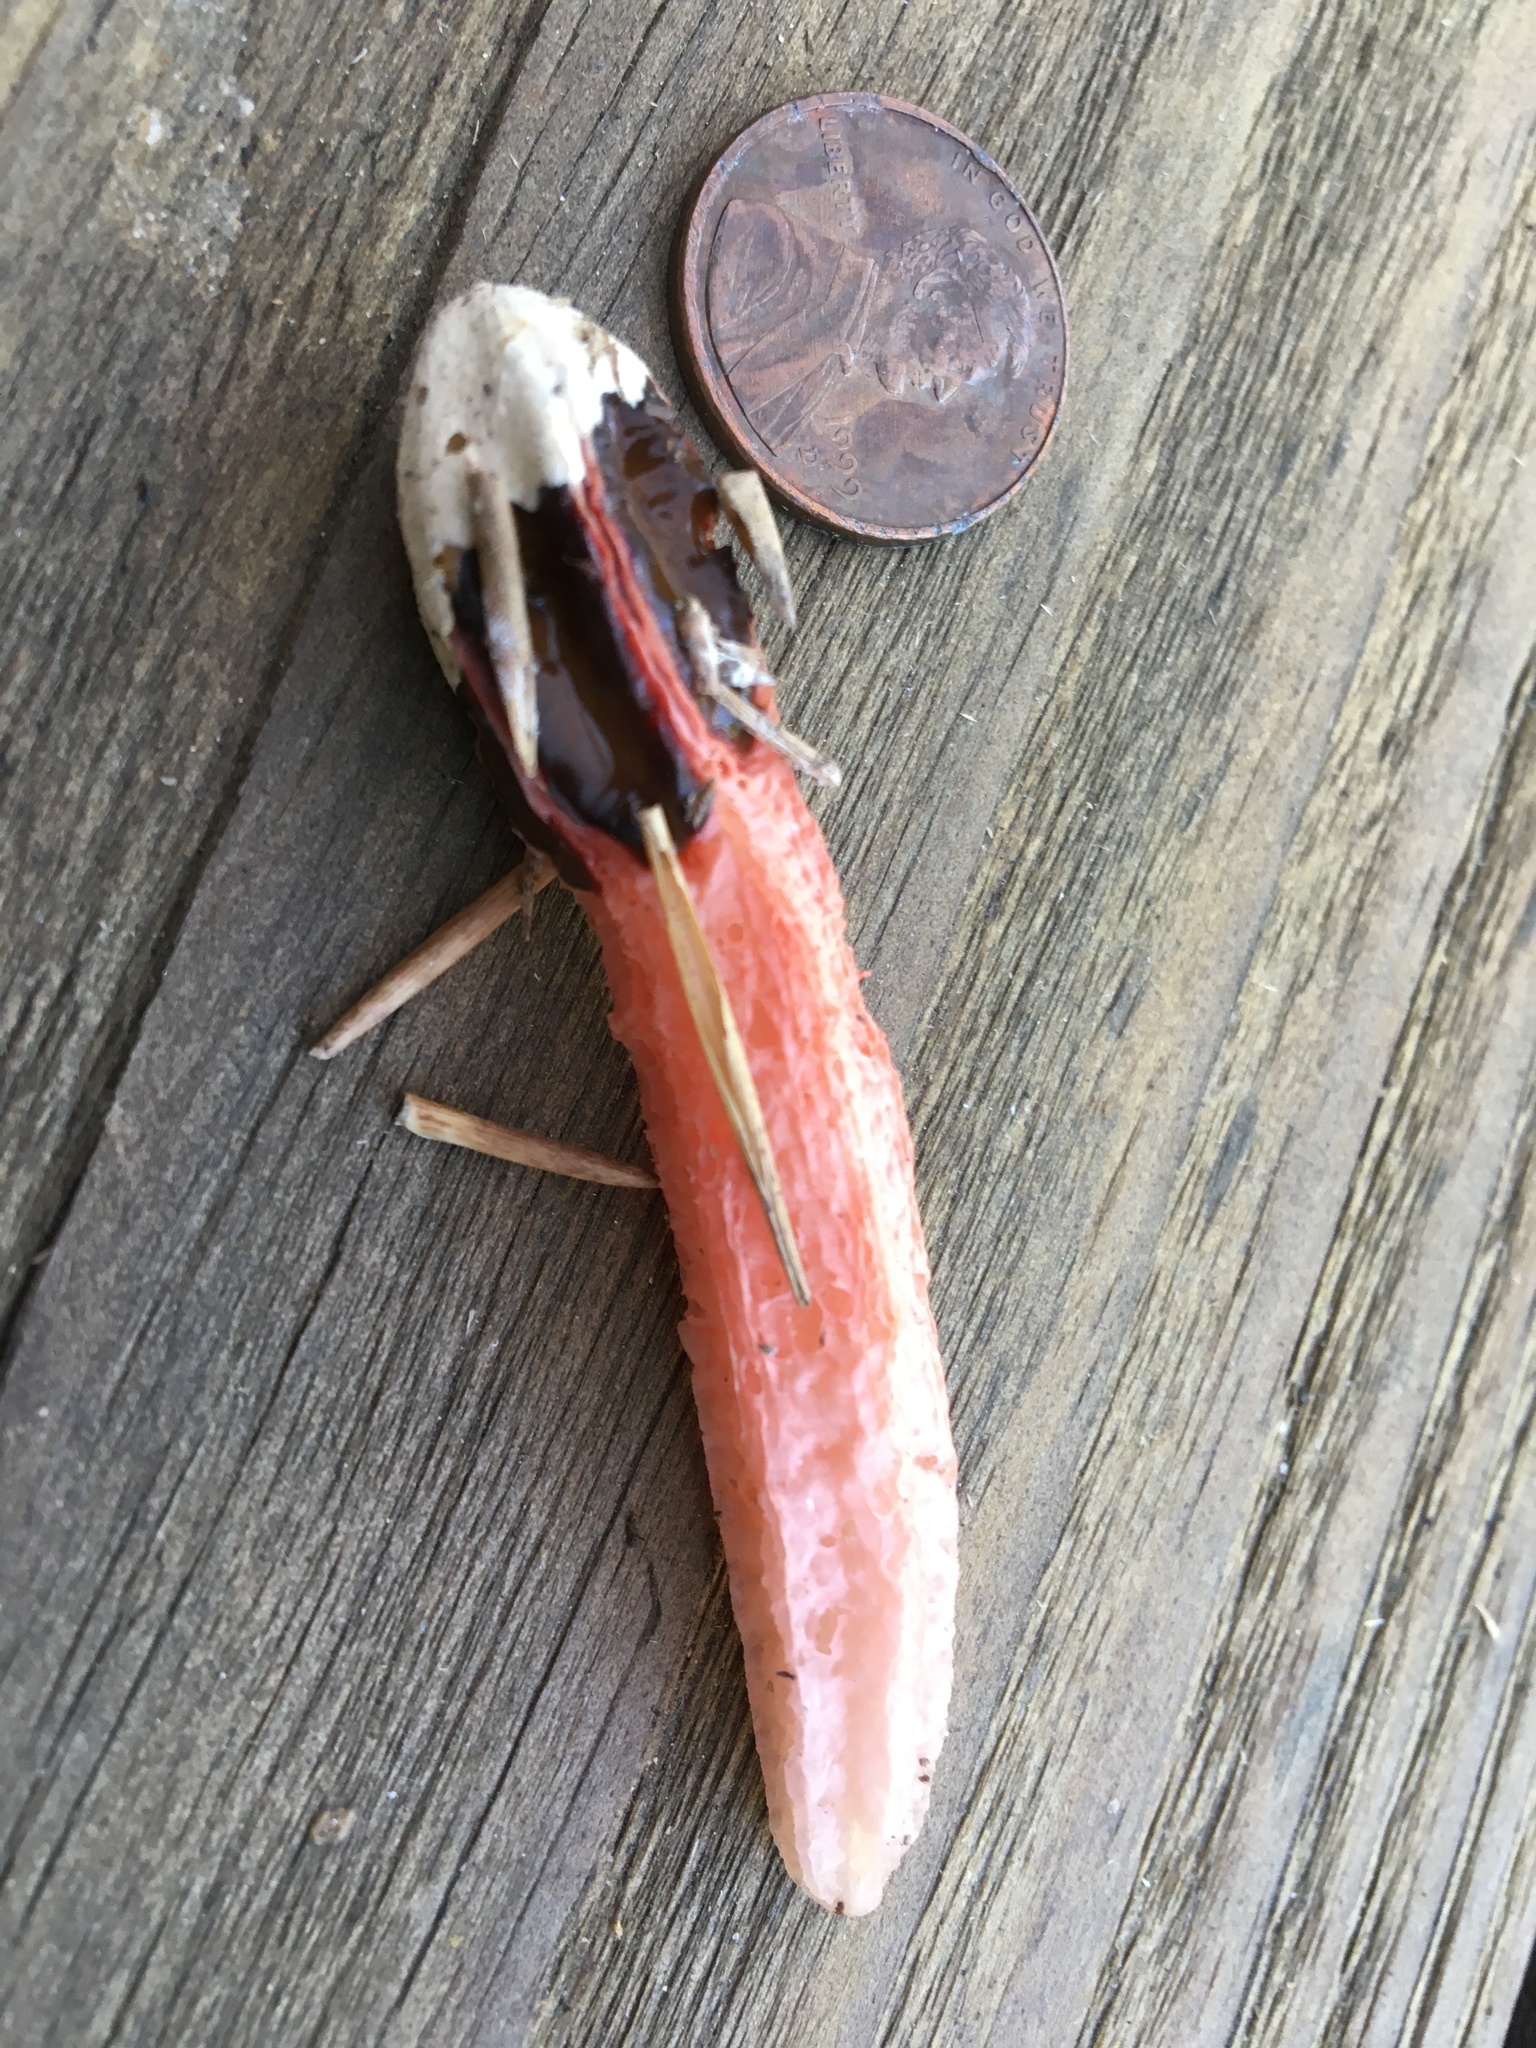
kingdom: Fungi
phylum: Basidiomycota
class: Agaricomycetes
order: Phallales
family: Phallaceae
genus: Lysurus
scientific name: Lysurus mokusin
